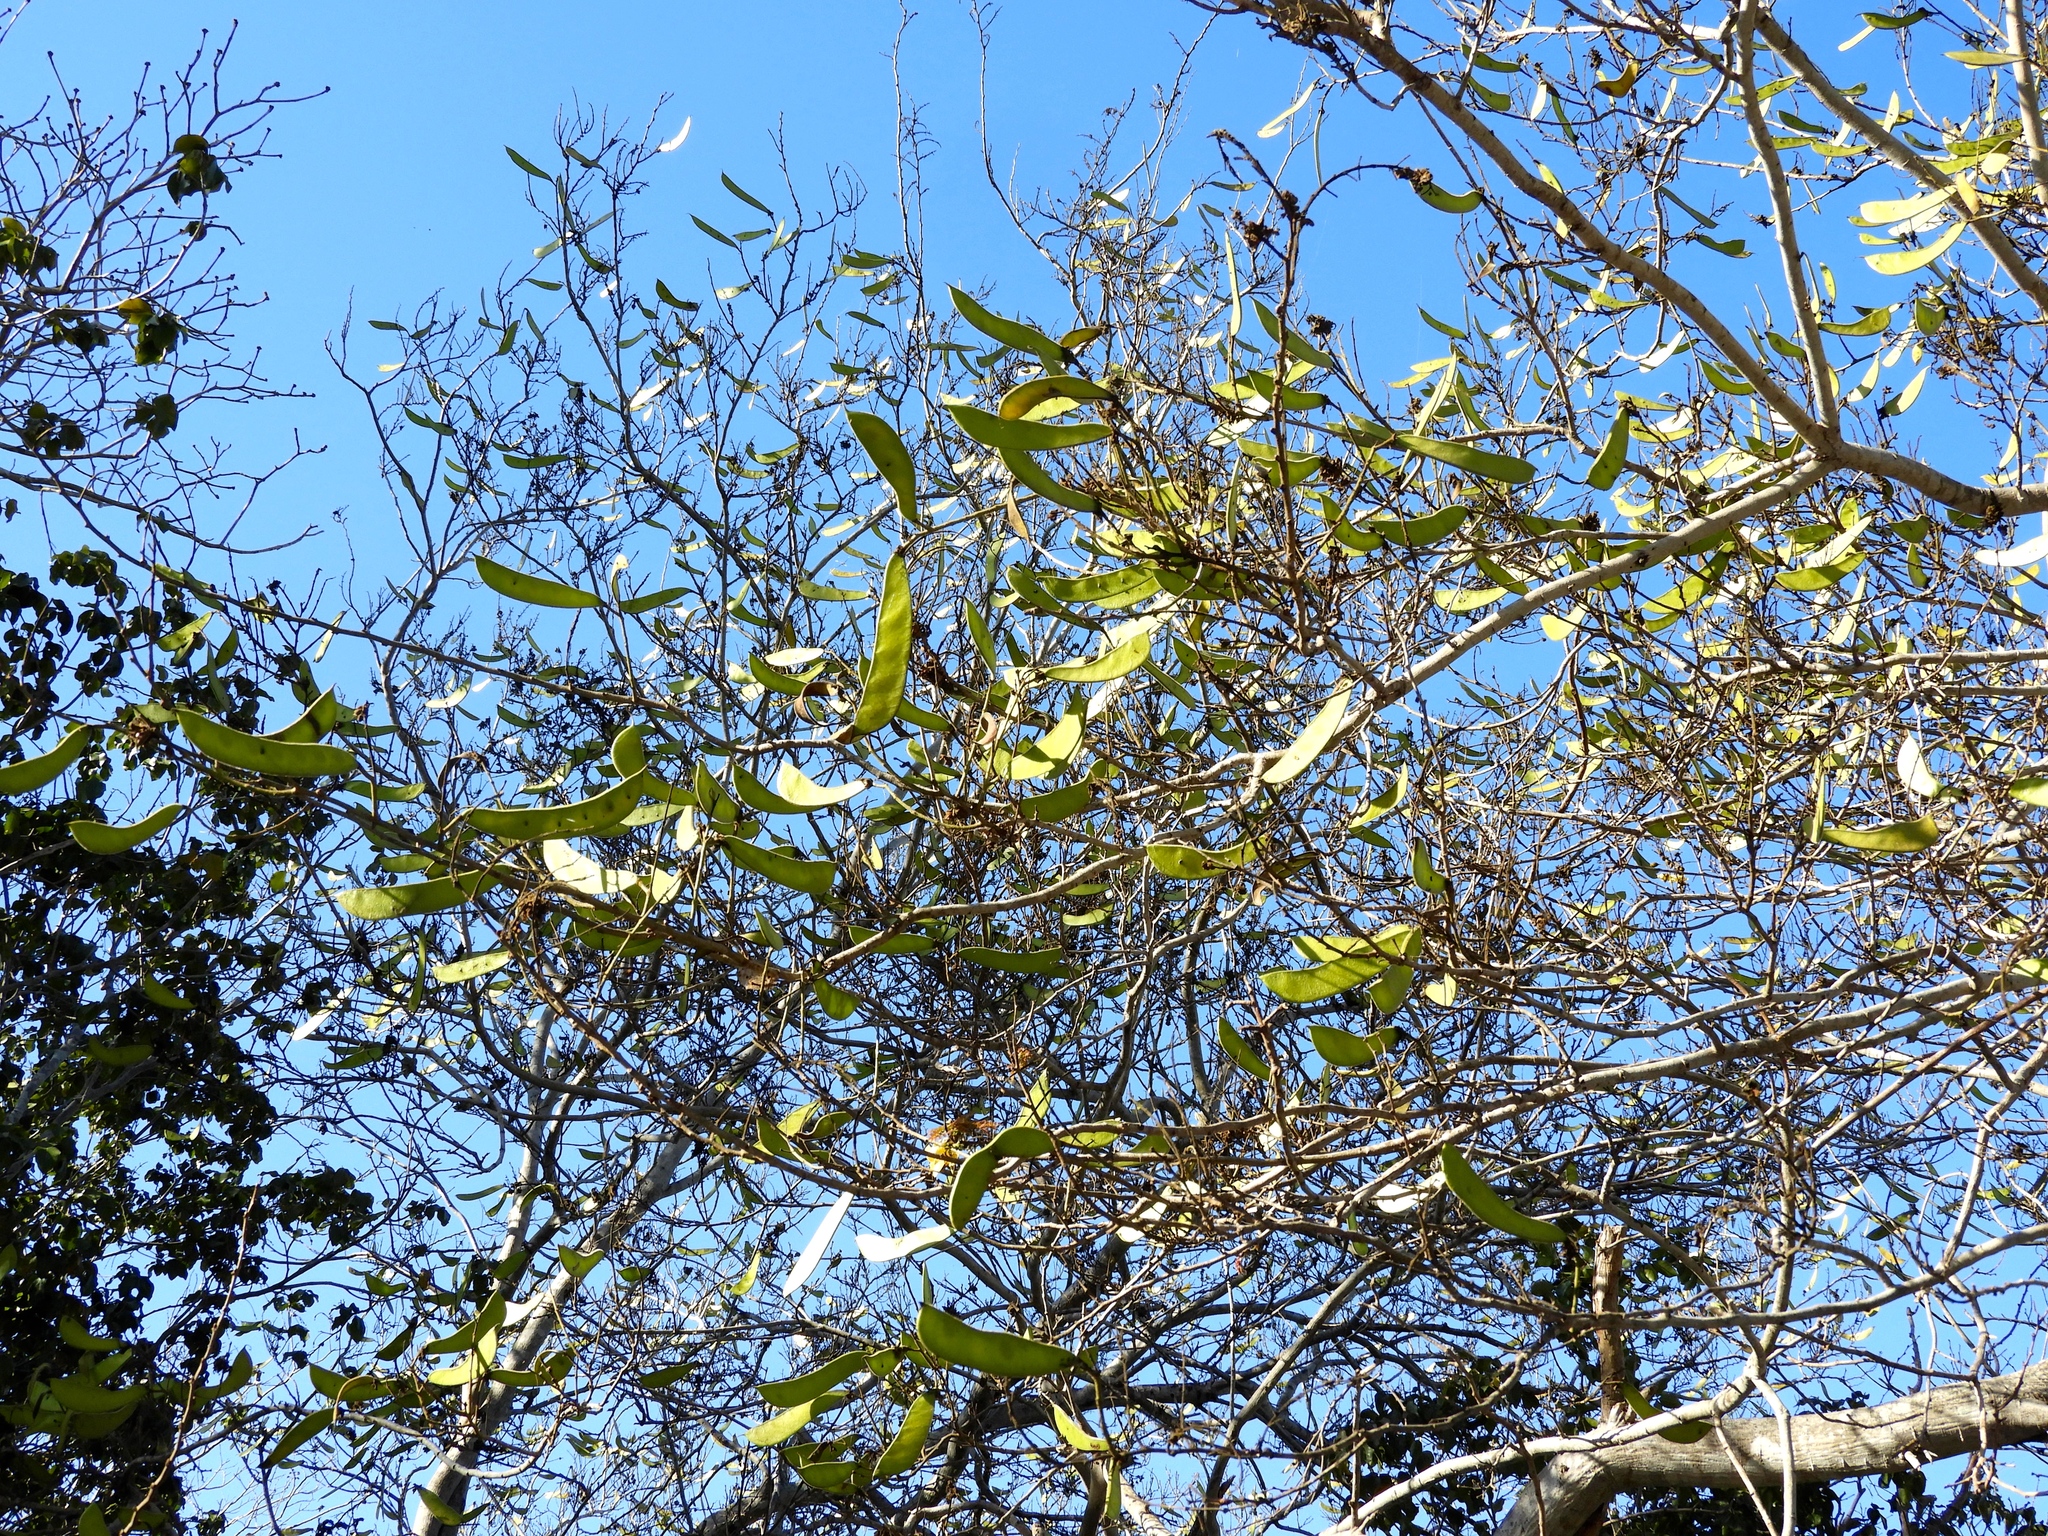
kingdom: Plantae
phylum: Tracheophyta
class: Magnoliopsida
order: Fabales
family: Fabaceae
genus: Cenostigma
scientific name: Cenostigma eriostachys
